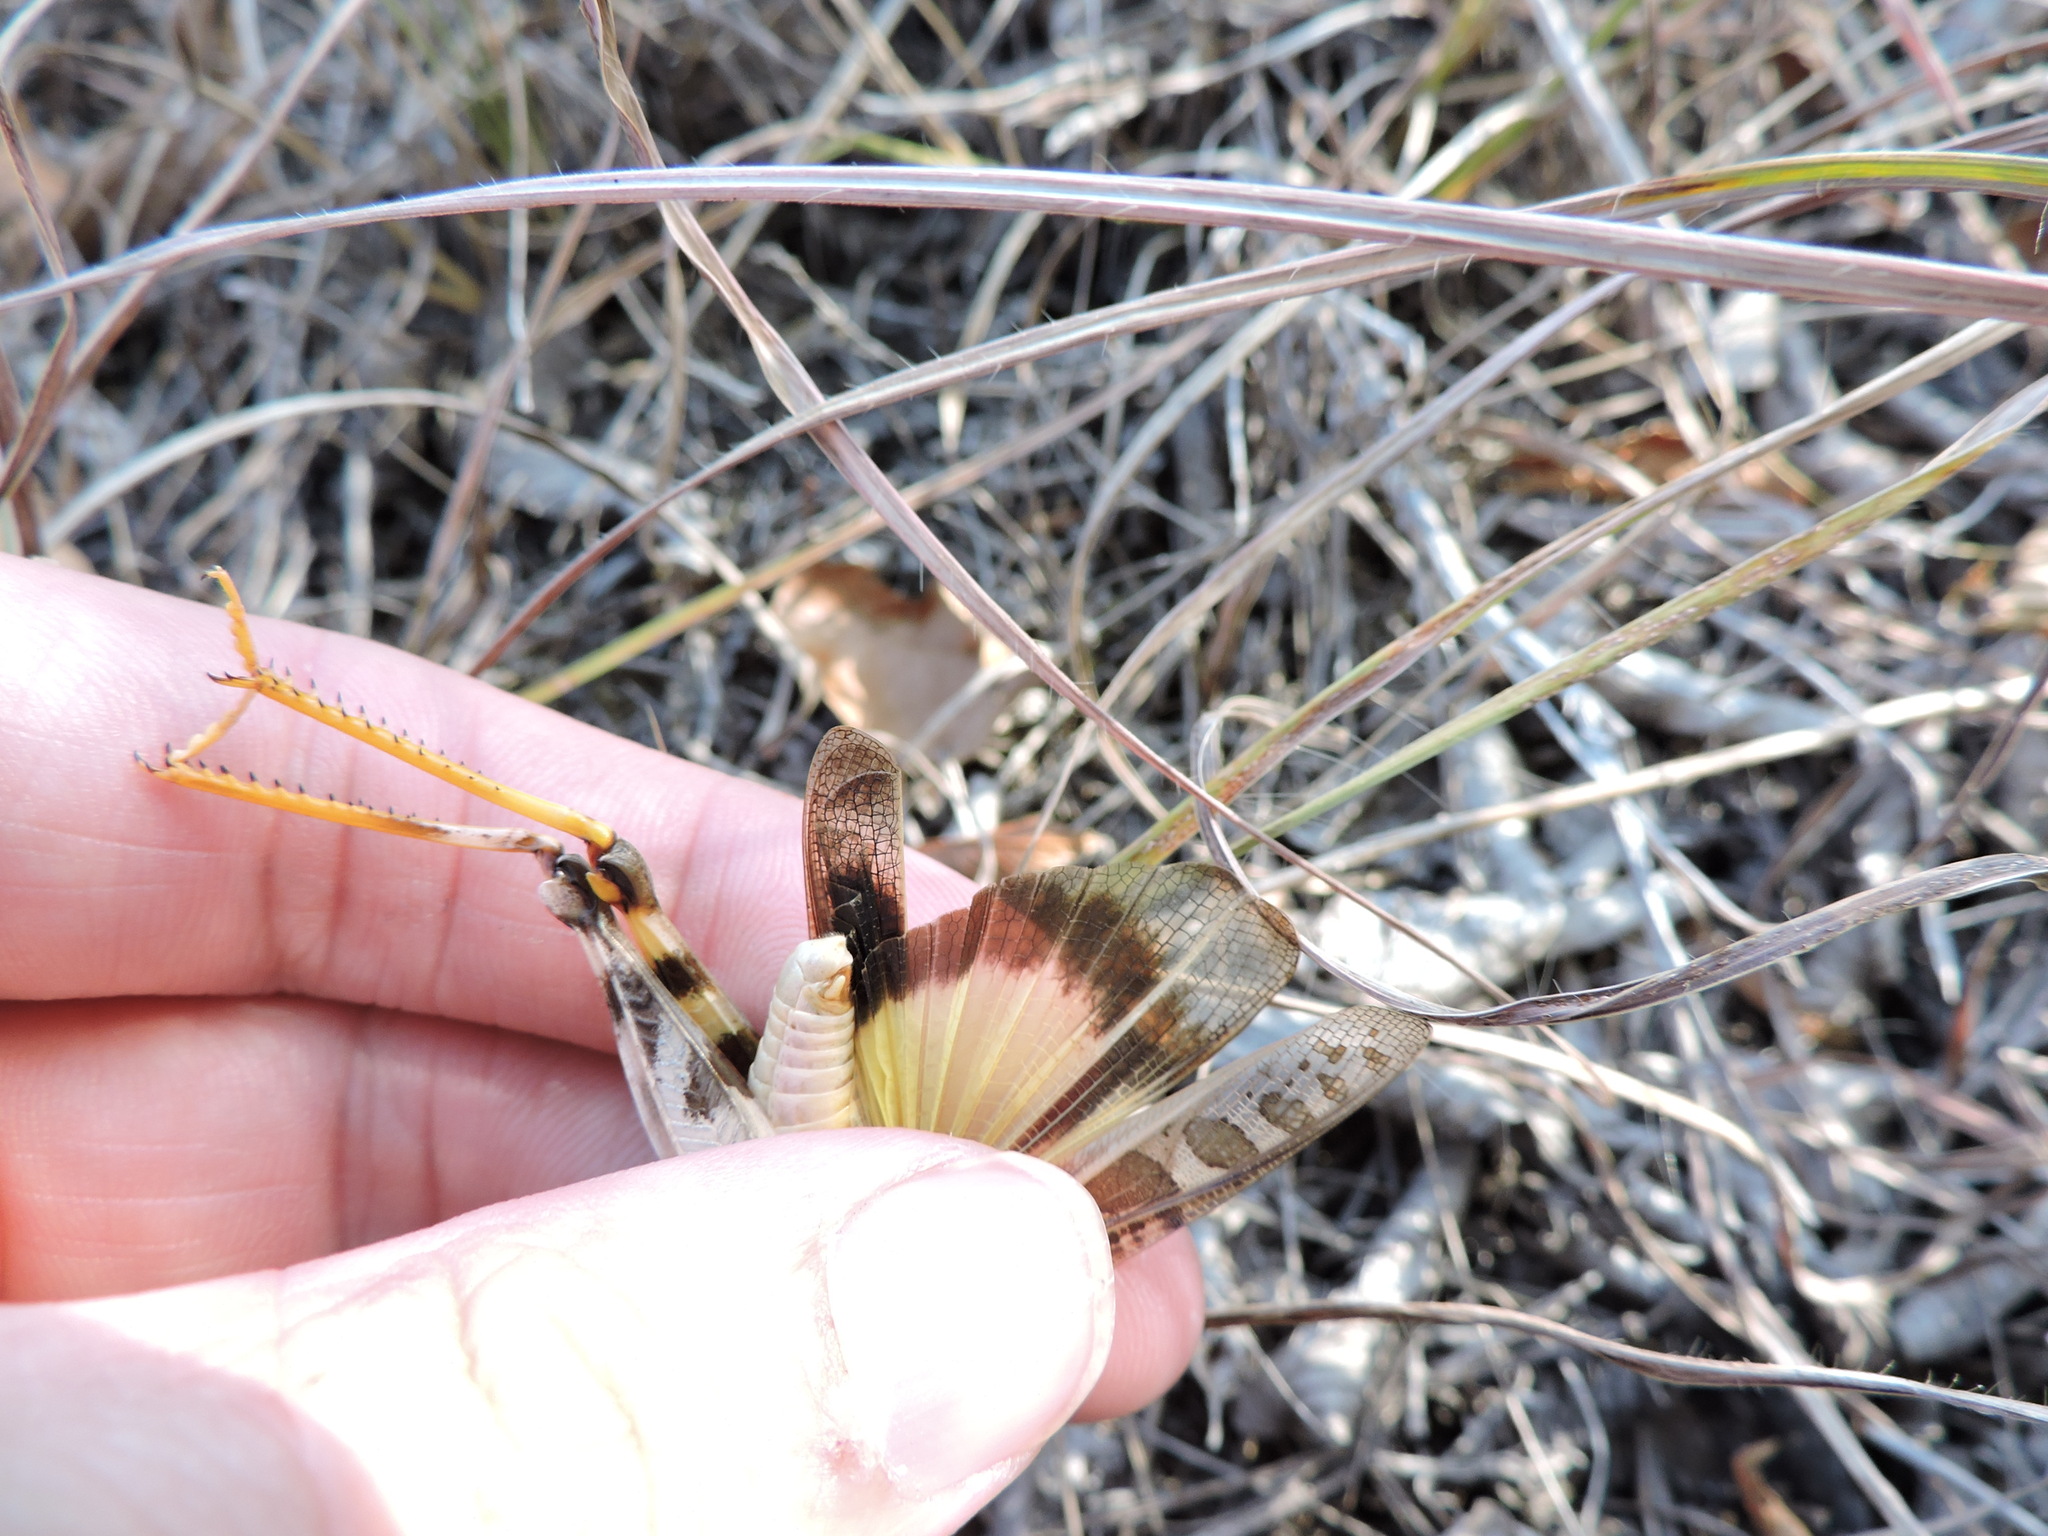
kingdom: Animalia
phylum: Arthropoda
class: Insecta
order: Orthoptera
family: Acrididae
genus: Hippiscus
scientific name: Hippiscus ocelote
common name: Wrinkled grasshopper
